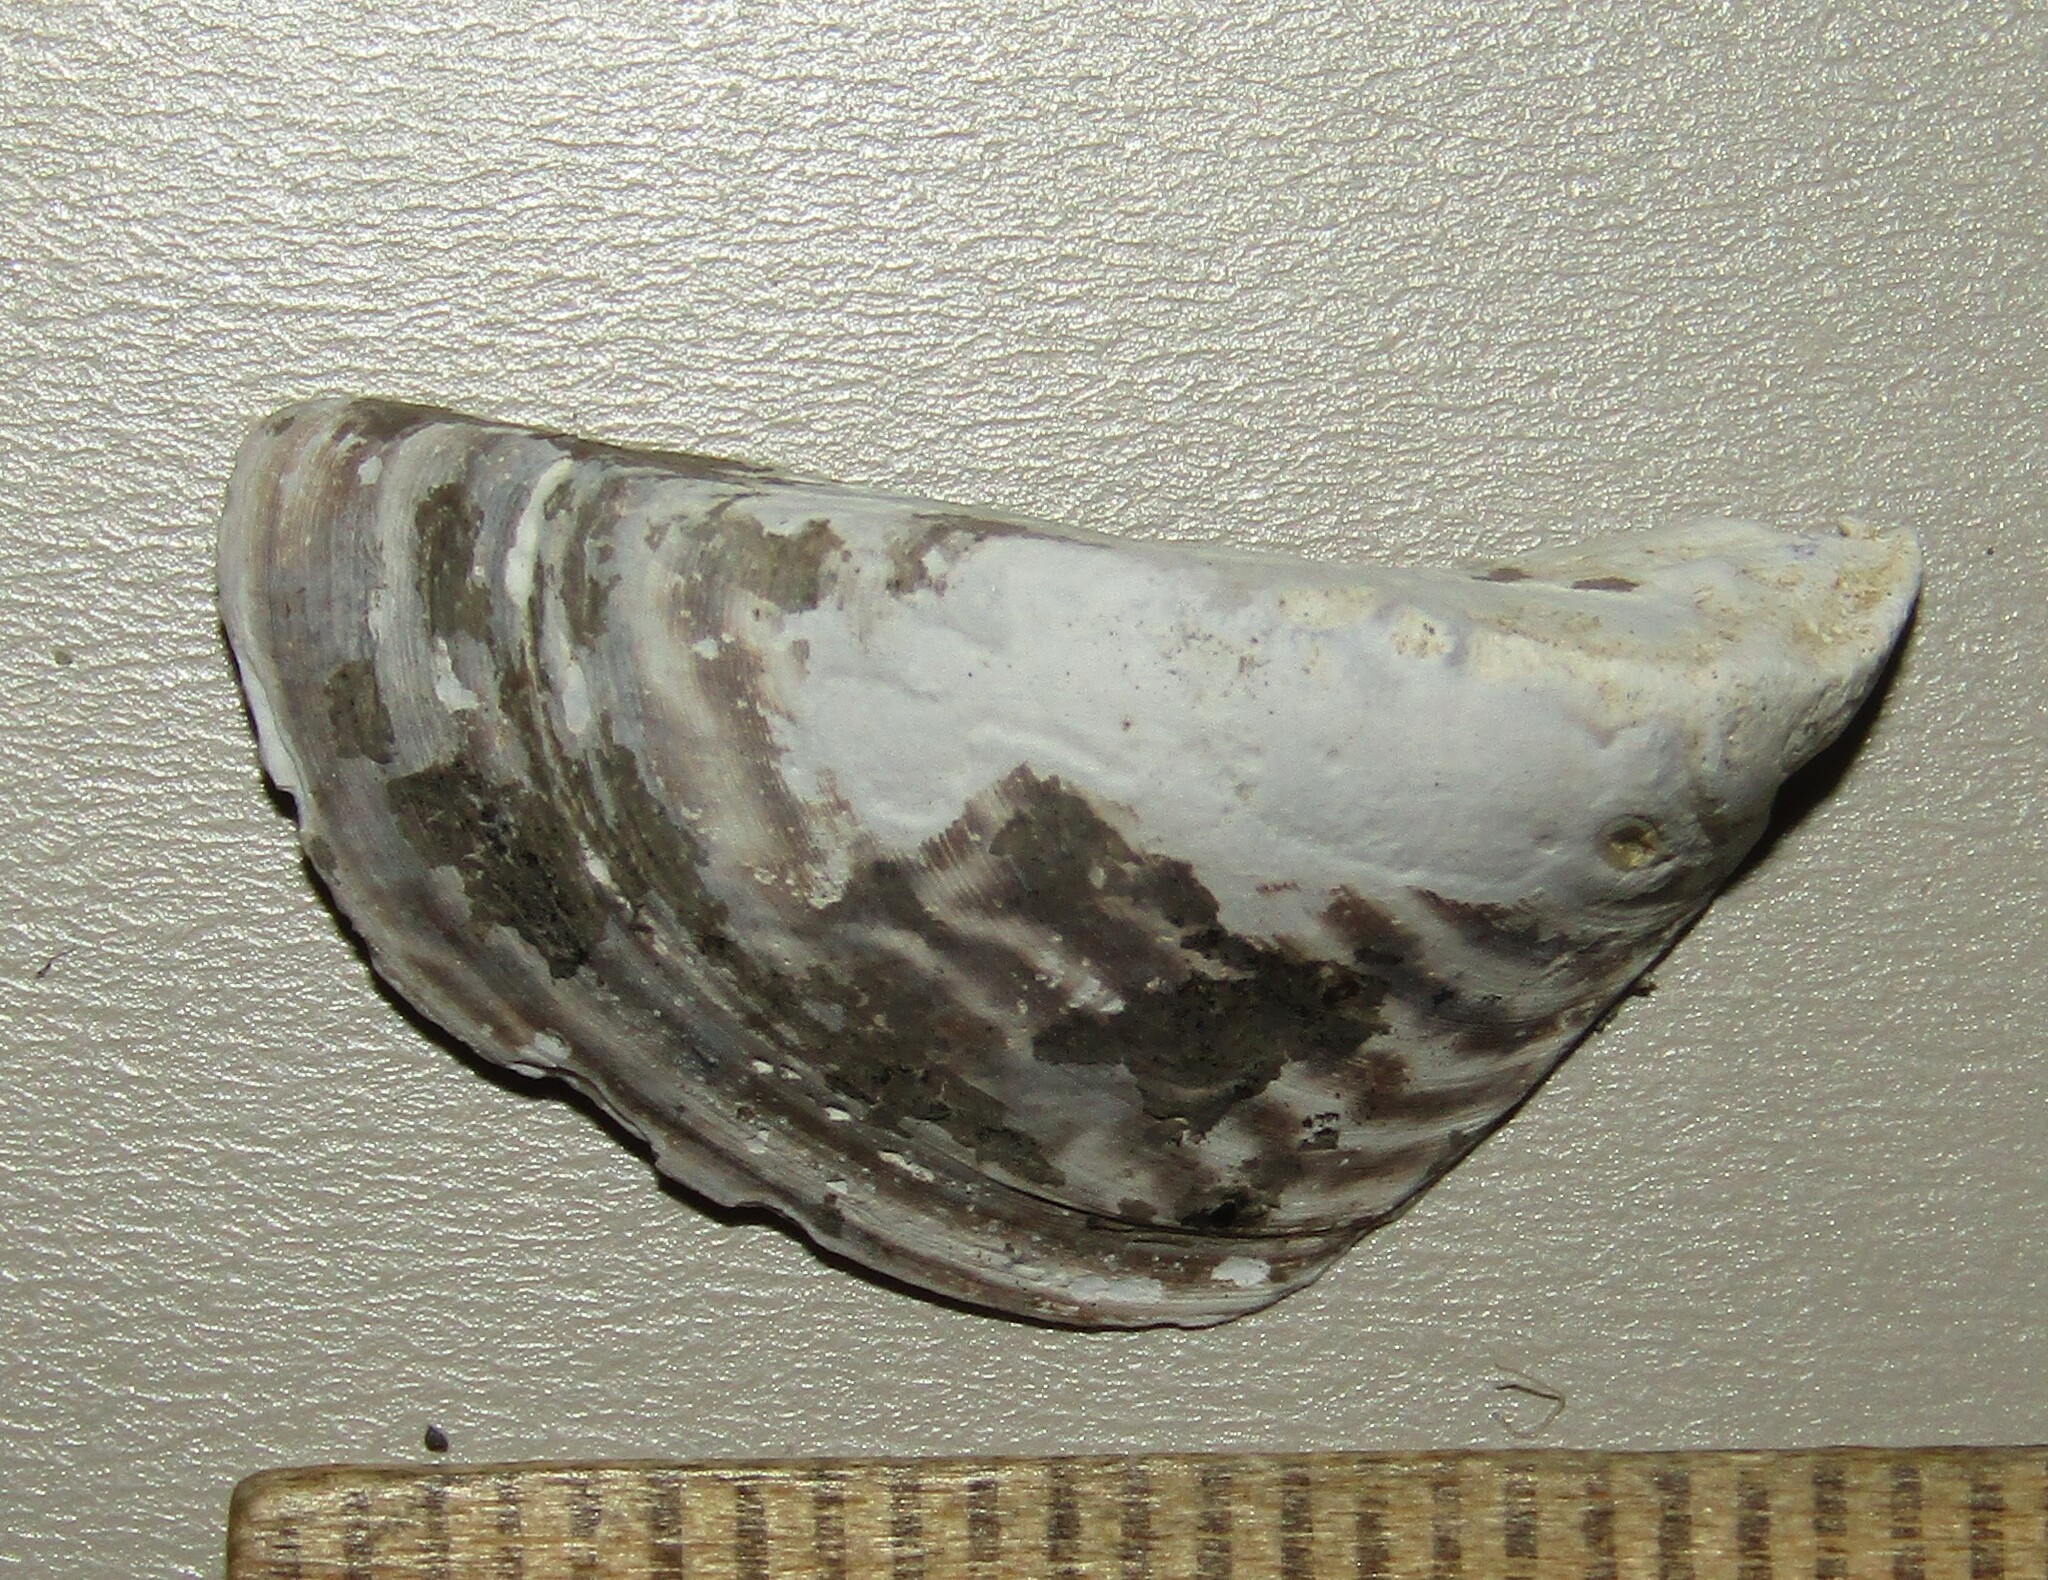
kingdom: Animalia
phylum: Mollusca
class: Bivalvia
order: Myida
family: Dreissenidae
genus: Dreissena
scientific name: Dreissena polymorpha
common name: Zebra mussel
